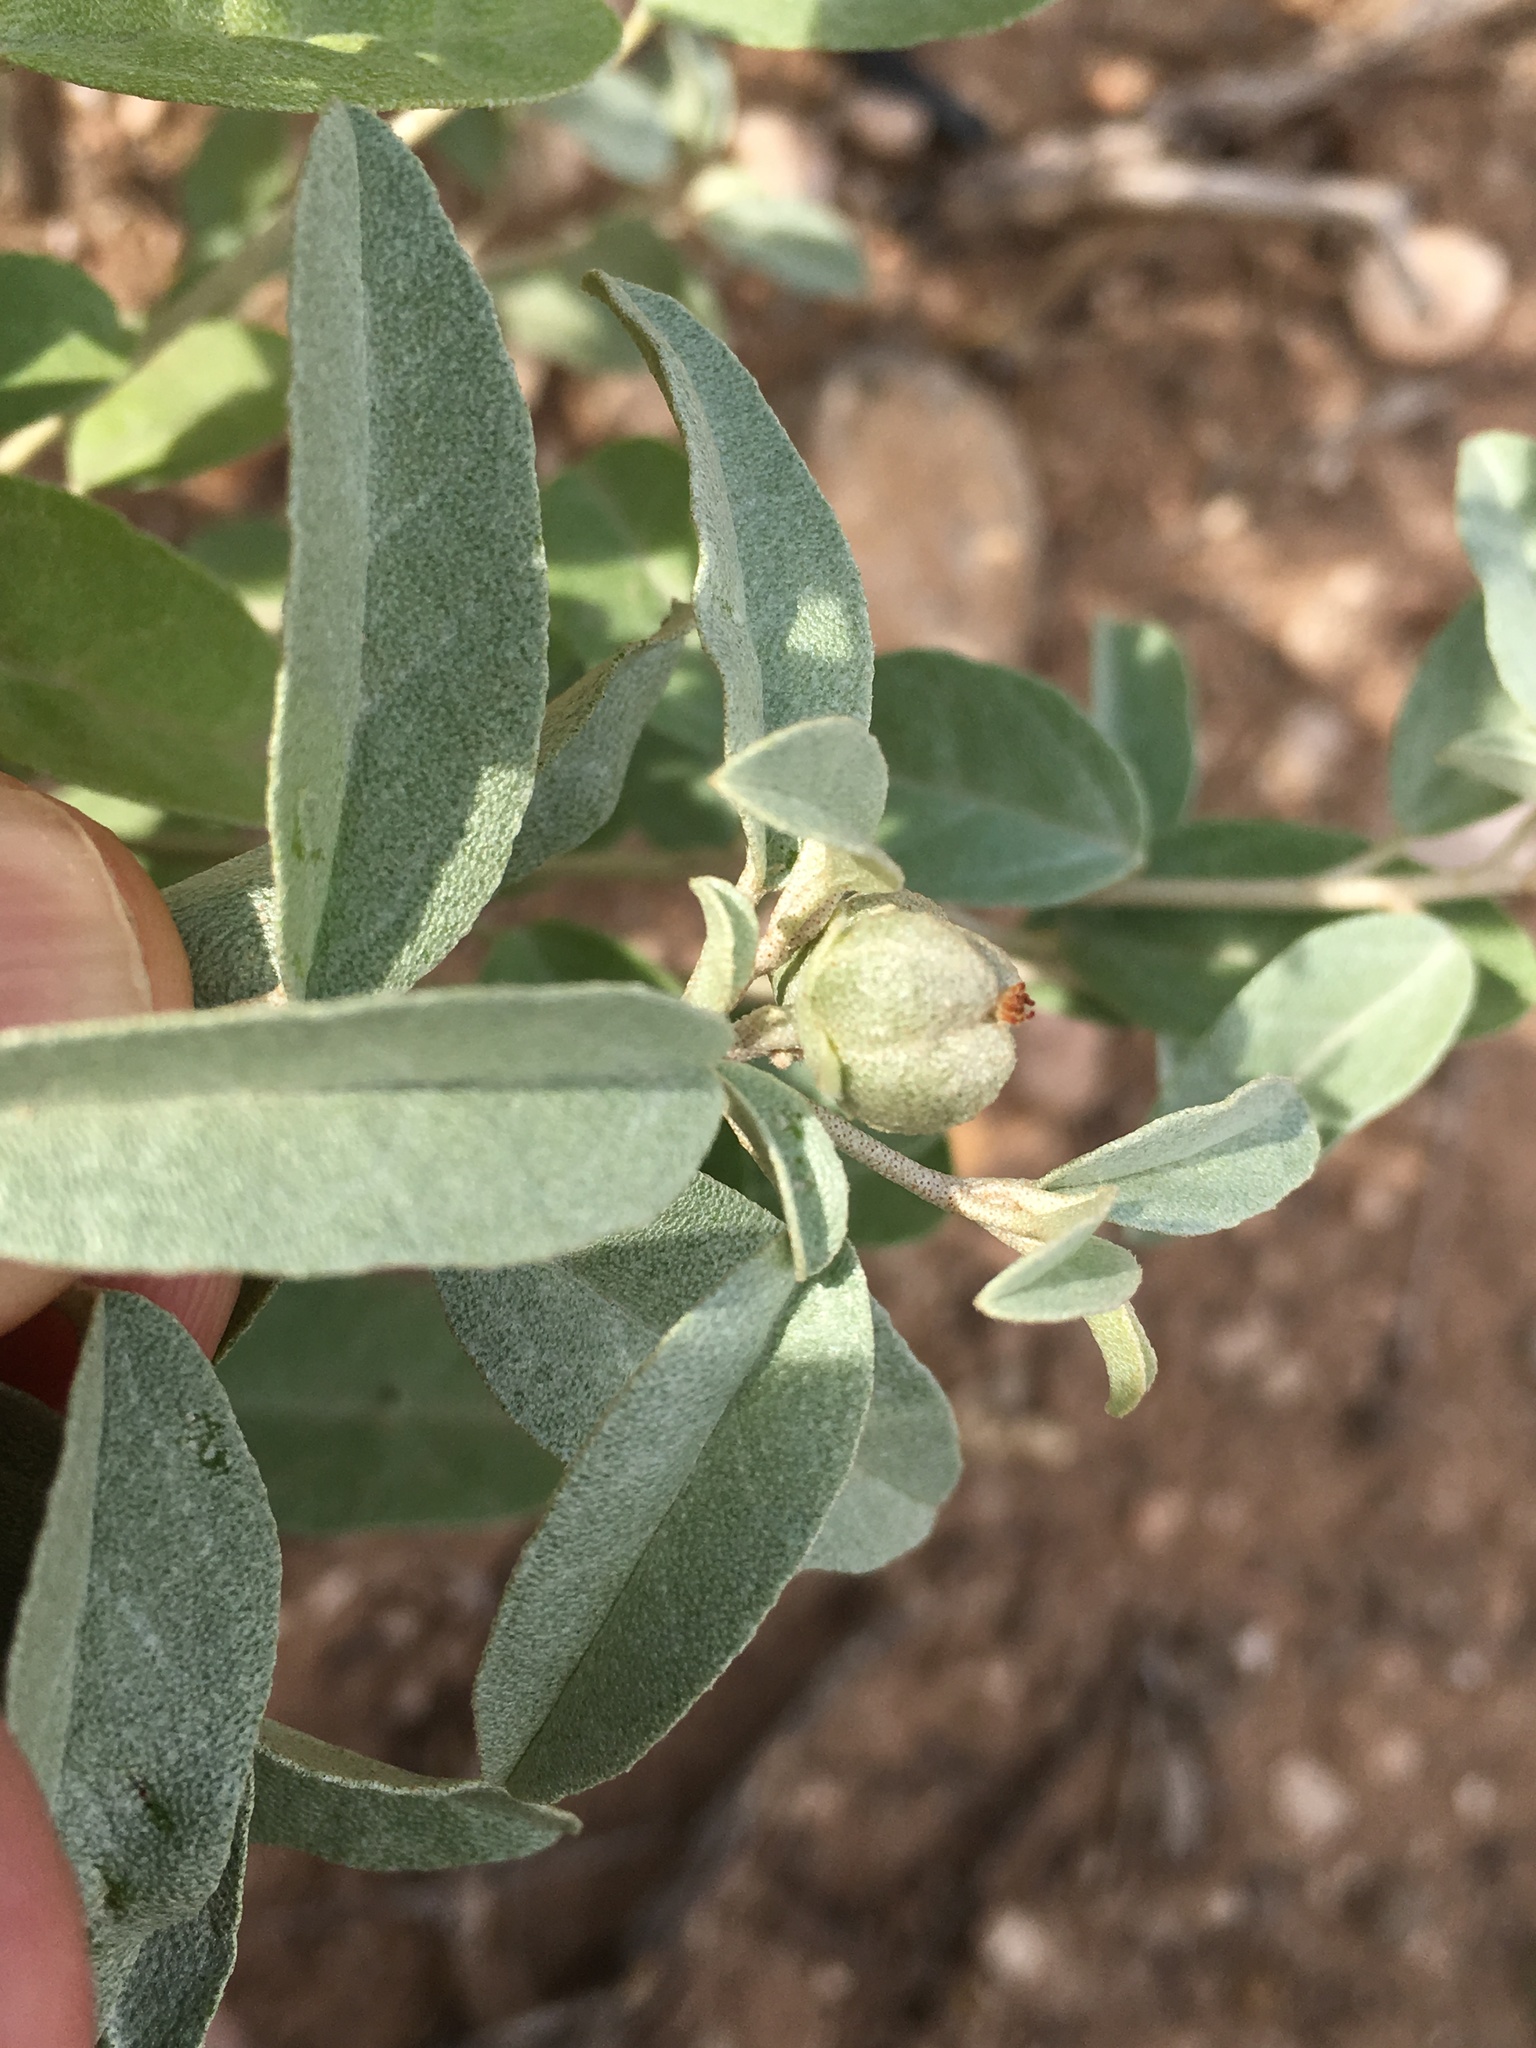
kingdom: Plantae
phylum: Tracheophyta
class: Magnoliopsida
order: Malpighiales
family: Euphorbiaceae
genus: Croton
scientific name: Croton dioicus
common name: Grassland croton
